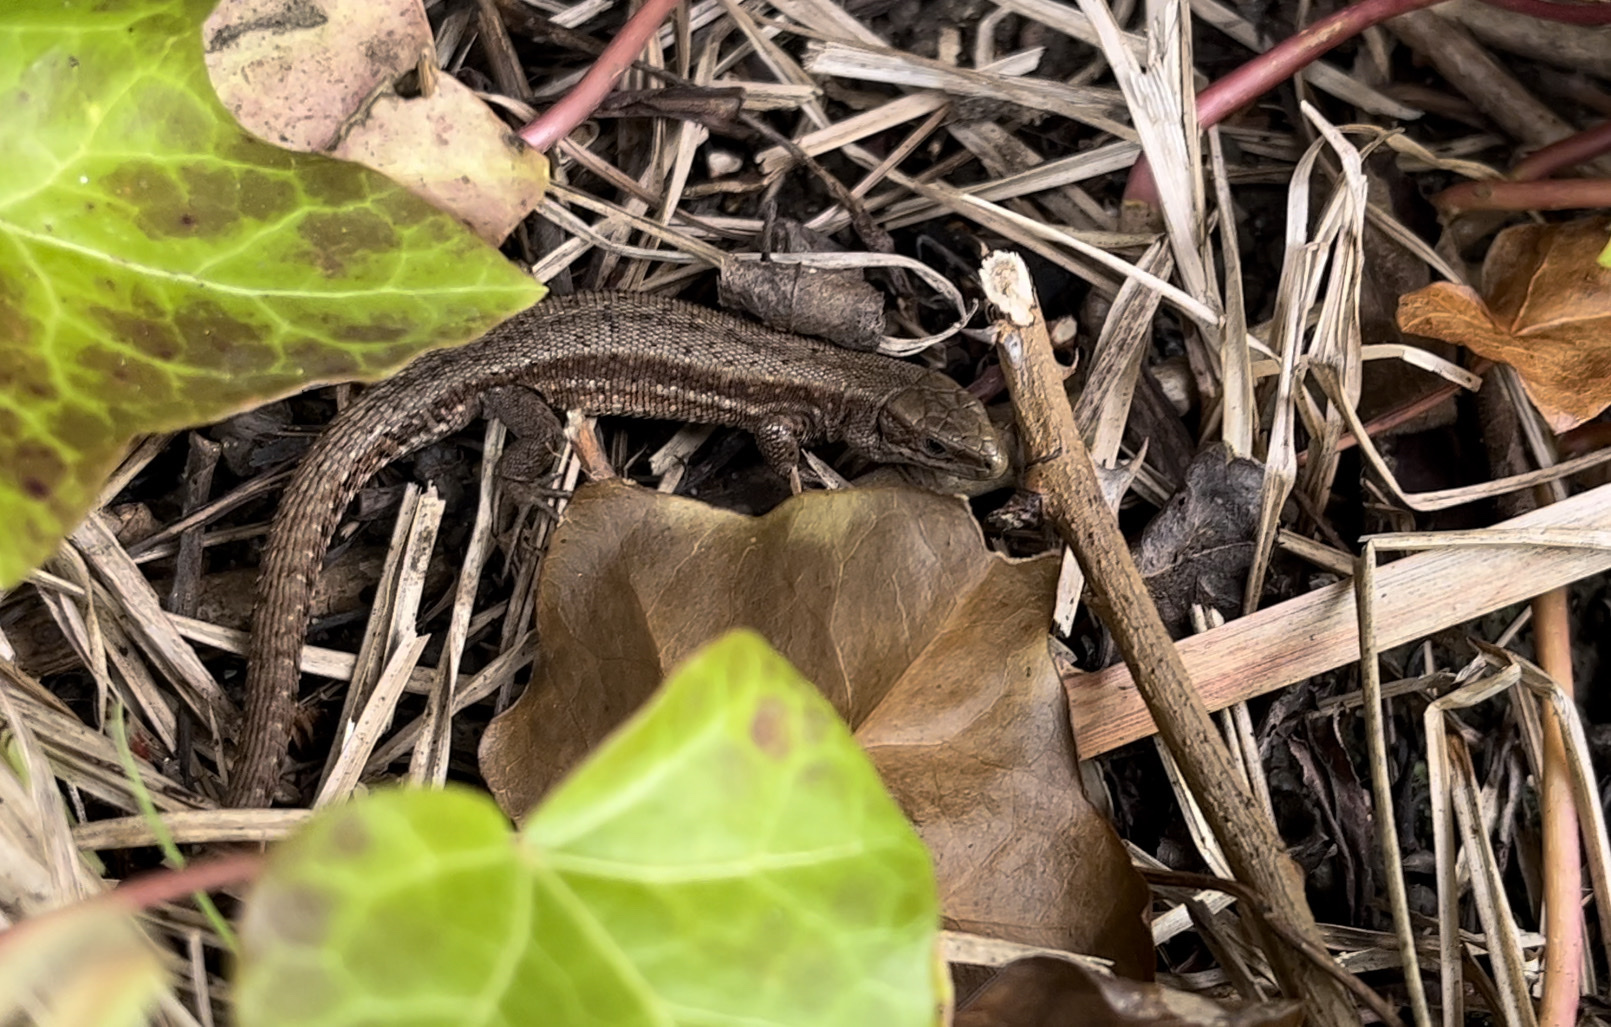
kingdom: Animalia
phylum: Chordata
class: Squamata
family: Lacertidae
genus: Zootoca
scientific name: Zootoca vivipara
